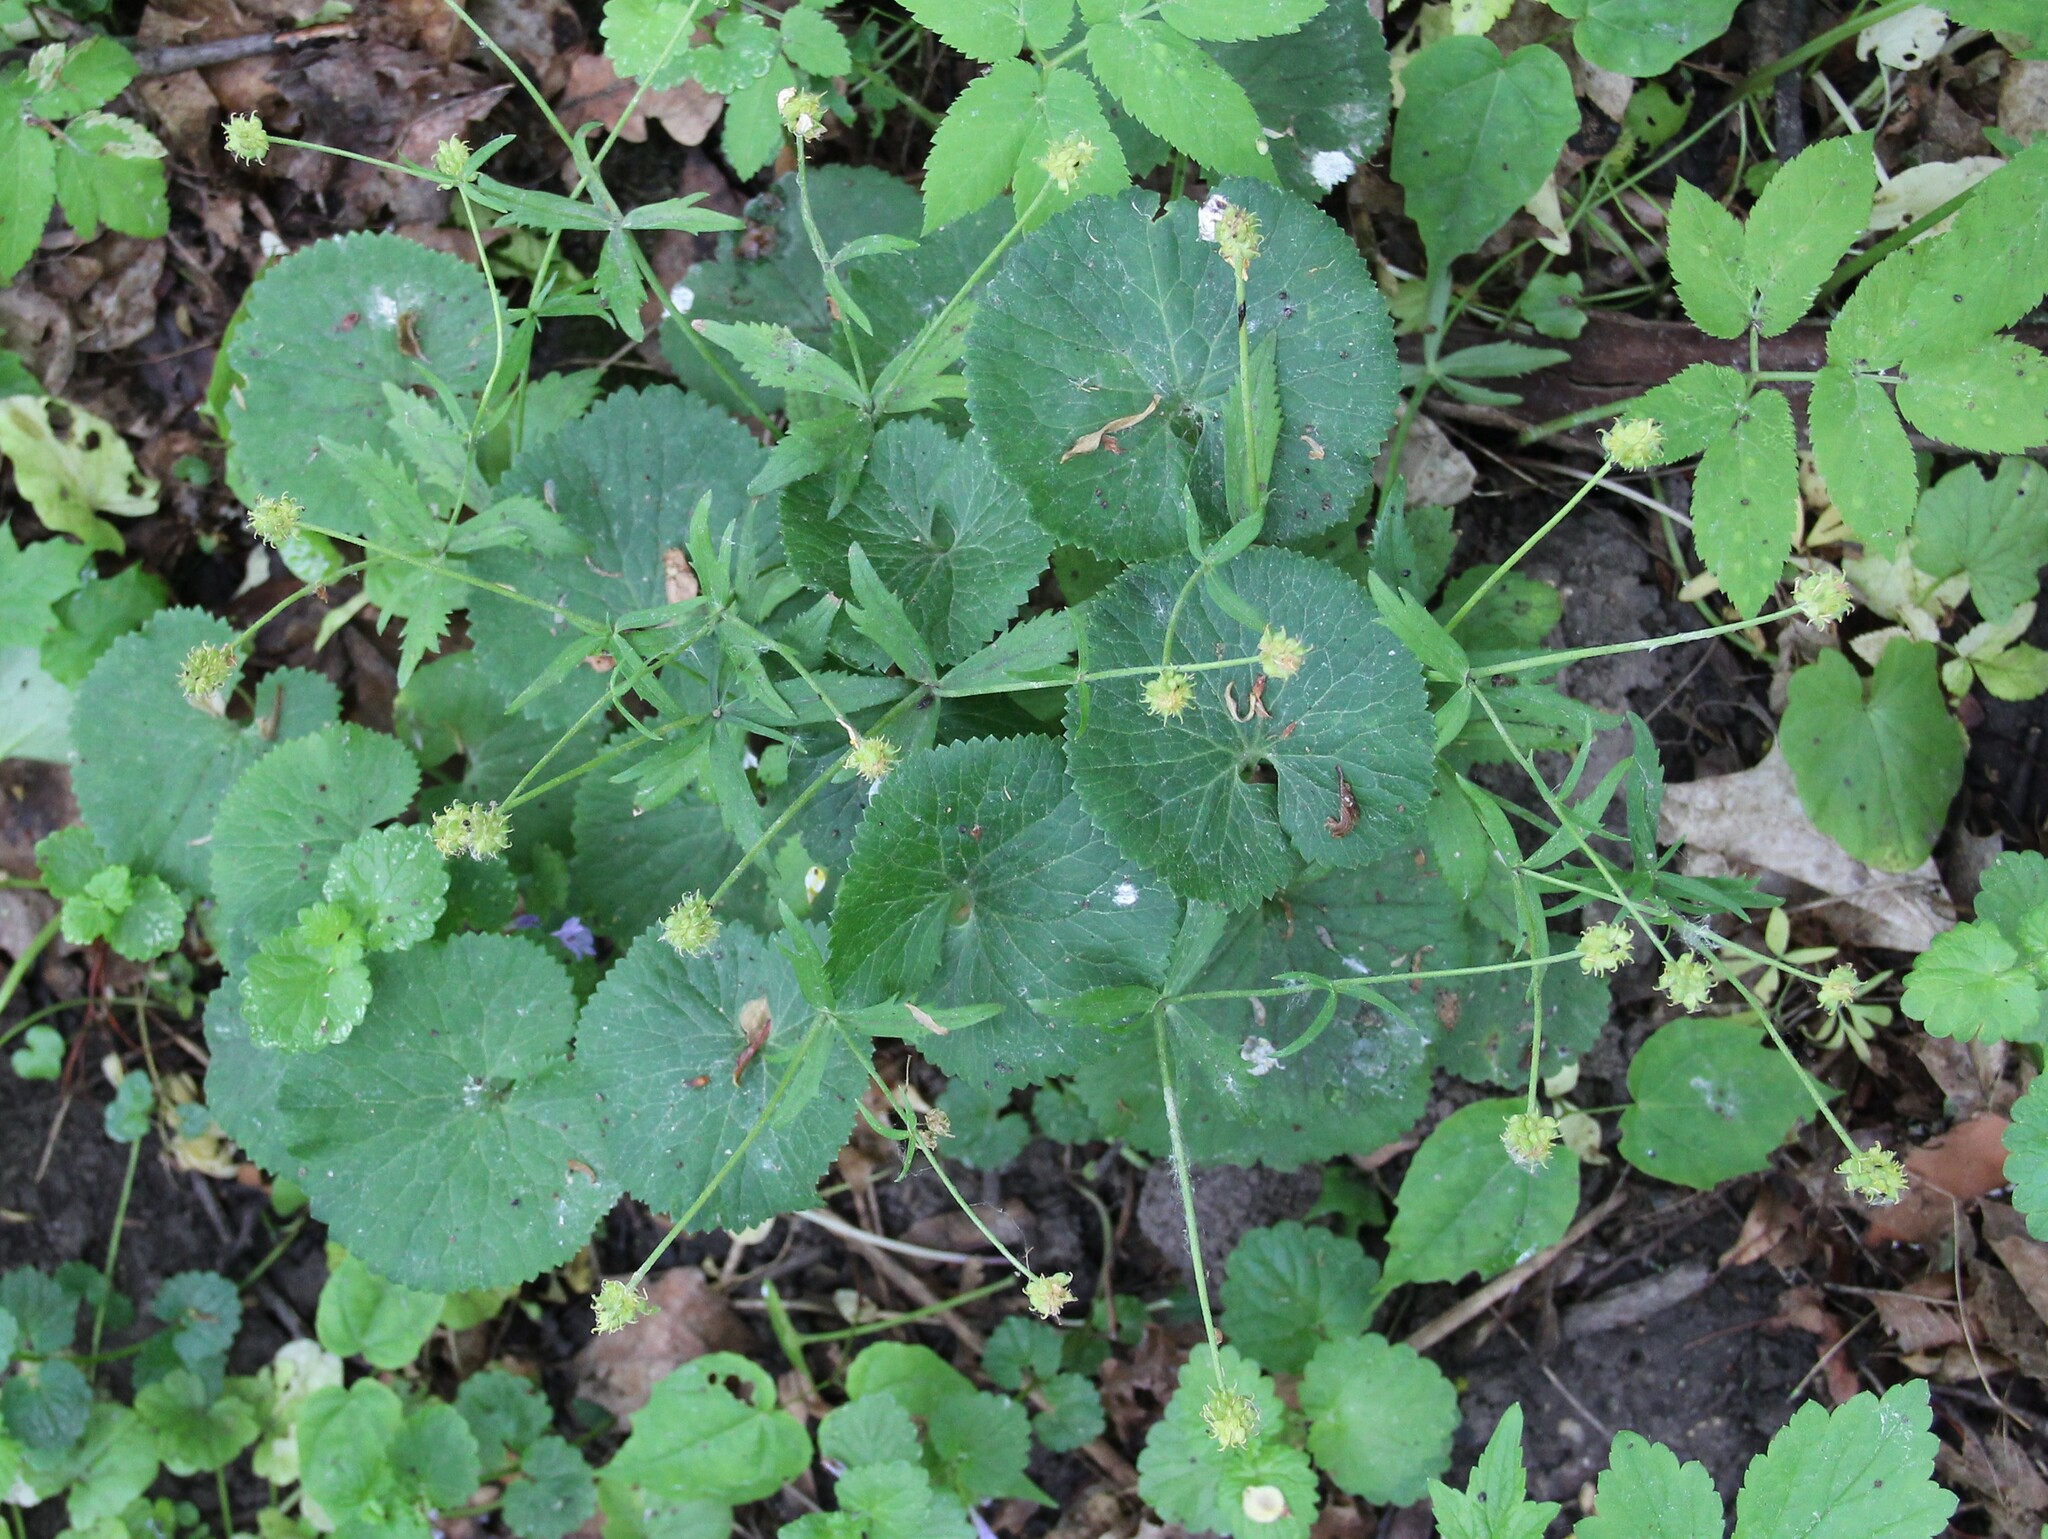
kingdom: Plantae
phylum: Tracheophyta
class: Magnoliopsida
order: Ranunculales
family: Ranunculaceae
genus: Ranunculus
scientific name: Ranunculus cassubicus
